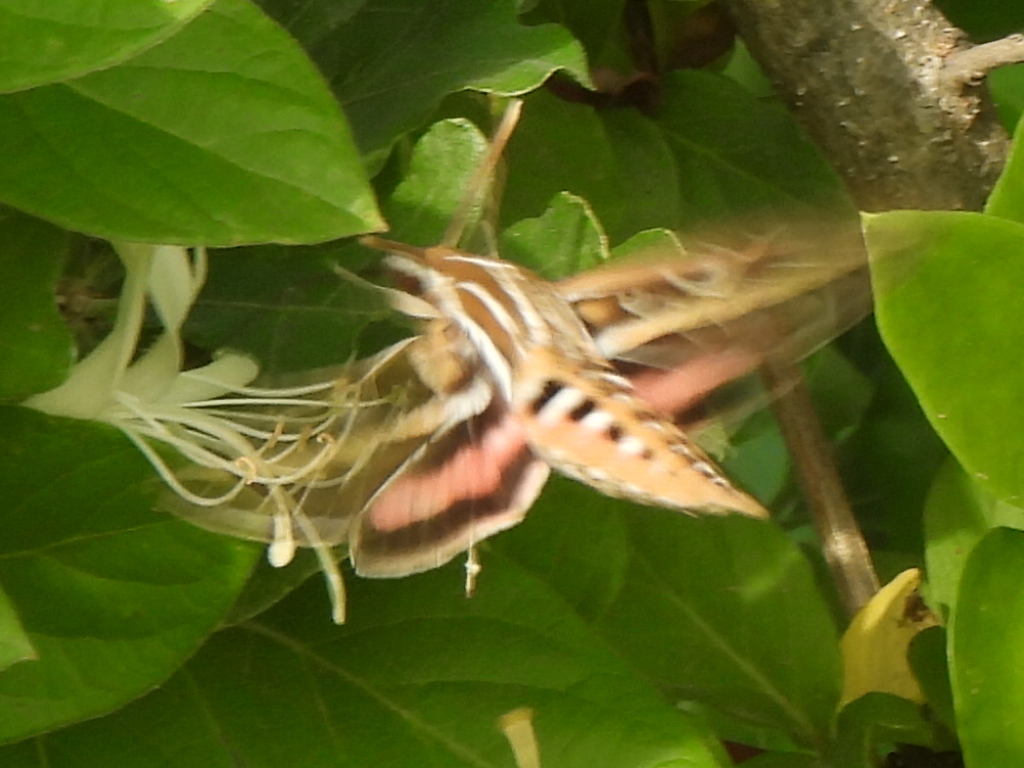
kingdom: Animalia
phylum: Arthropoda
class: Insecta
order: Lepidoptera
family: Sphingidae
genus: Hyles
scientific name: Hyles lineata
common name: White-lined sphinx
